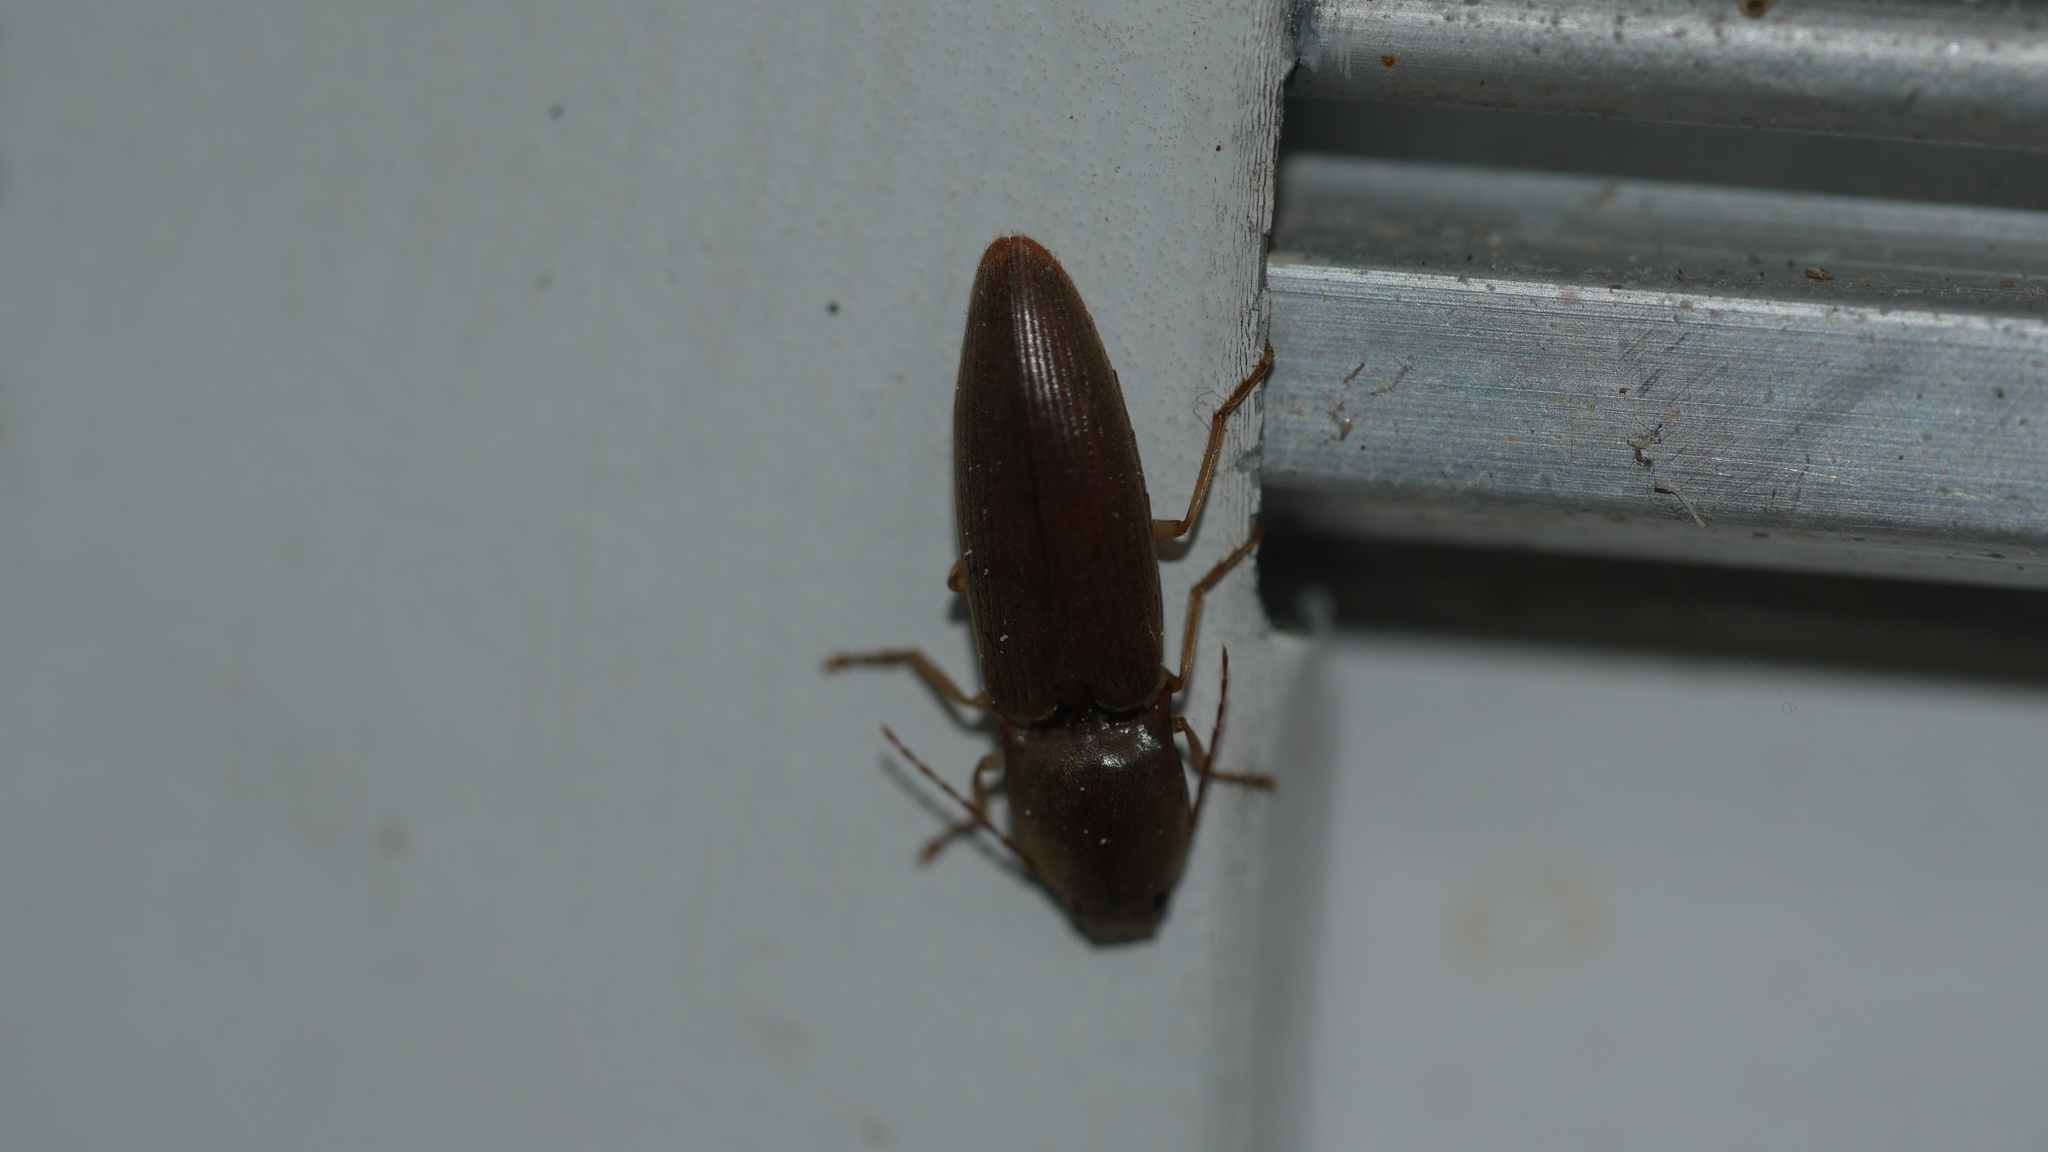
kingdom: Animalia
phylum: Arthropoda
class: Insecta
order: Coleoptera
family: Elateridae
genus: Monocrepidius
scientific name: Monocrepidius lividus
